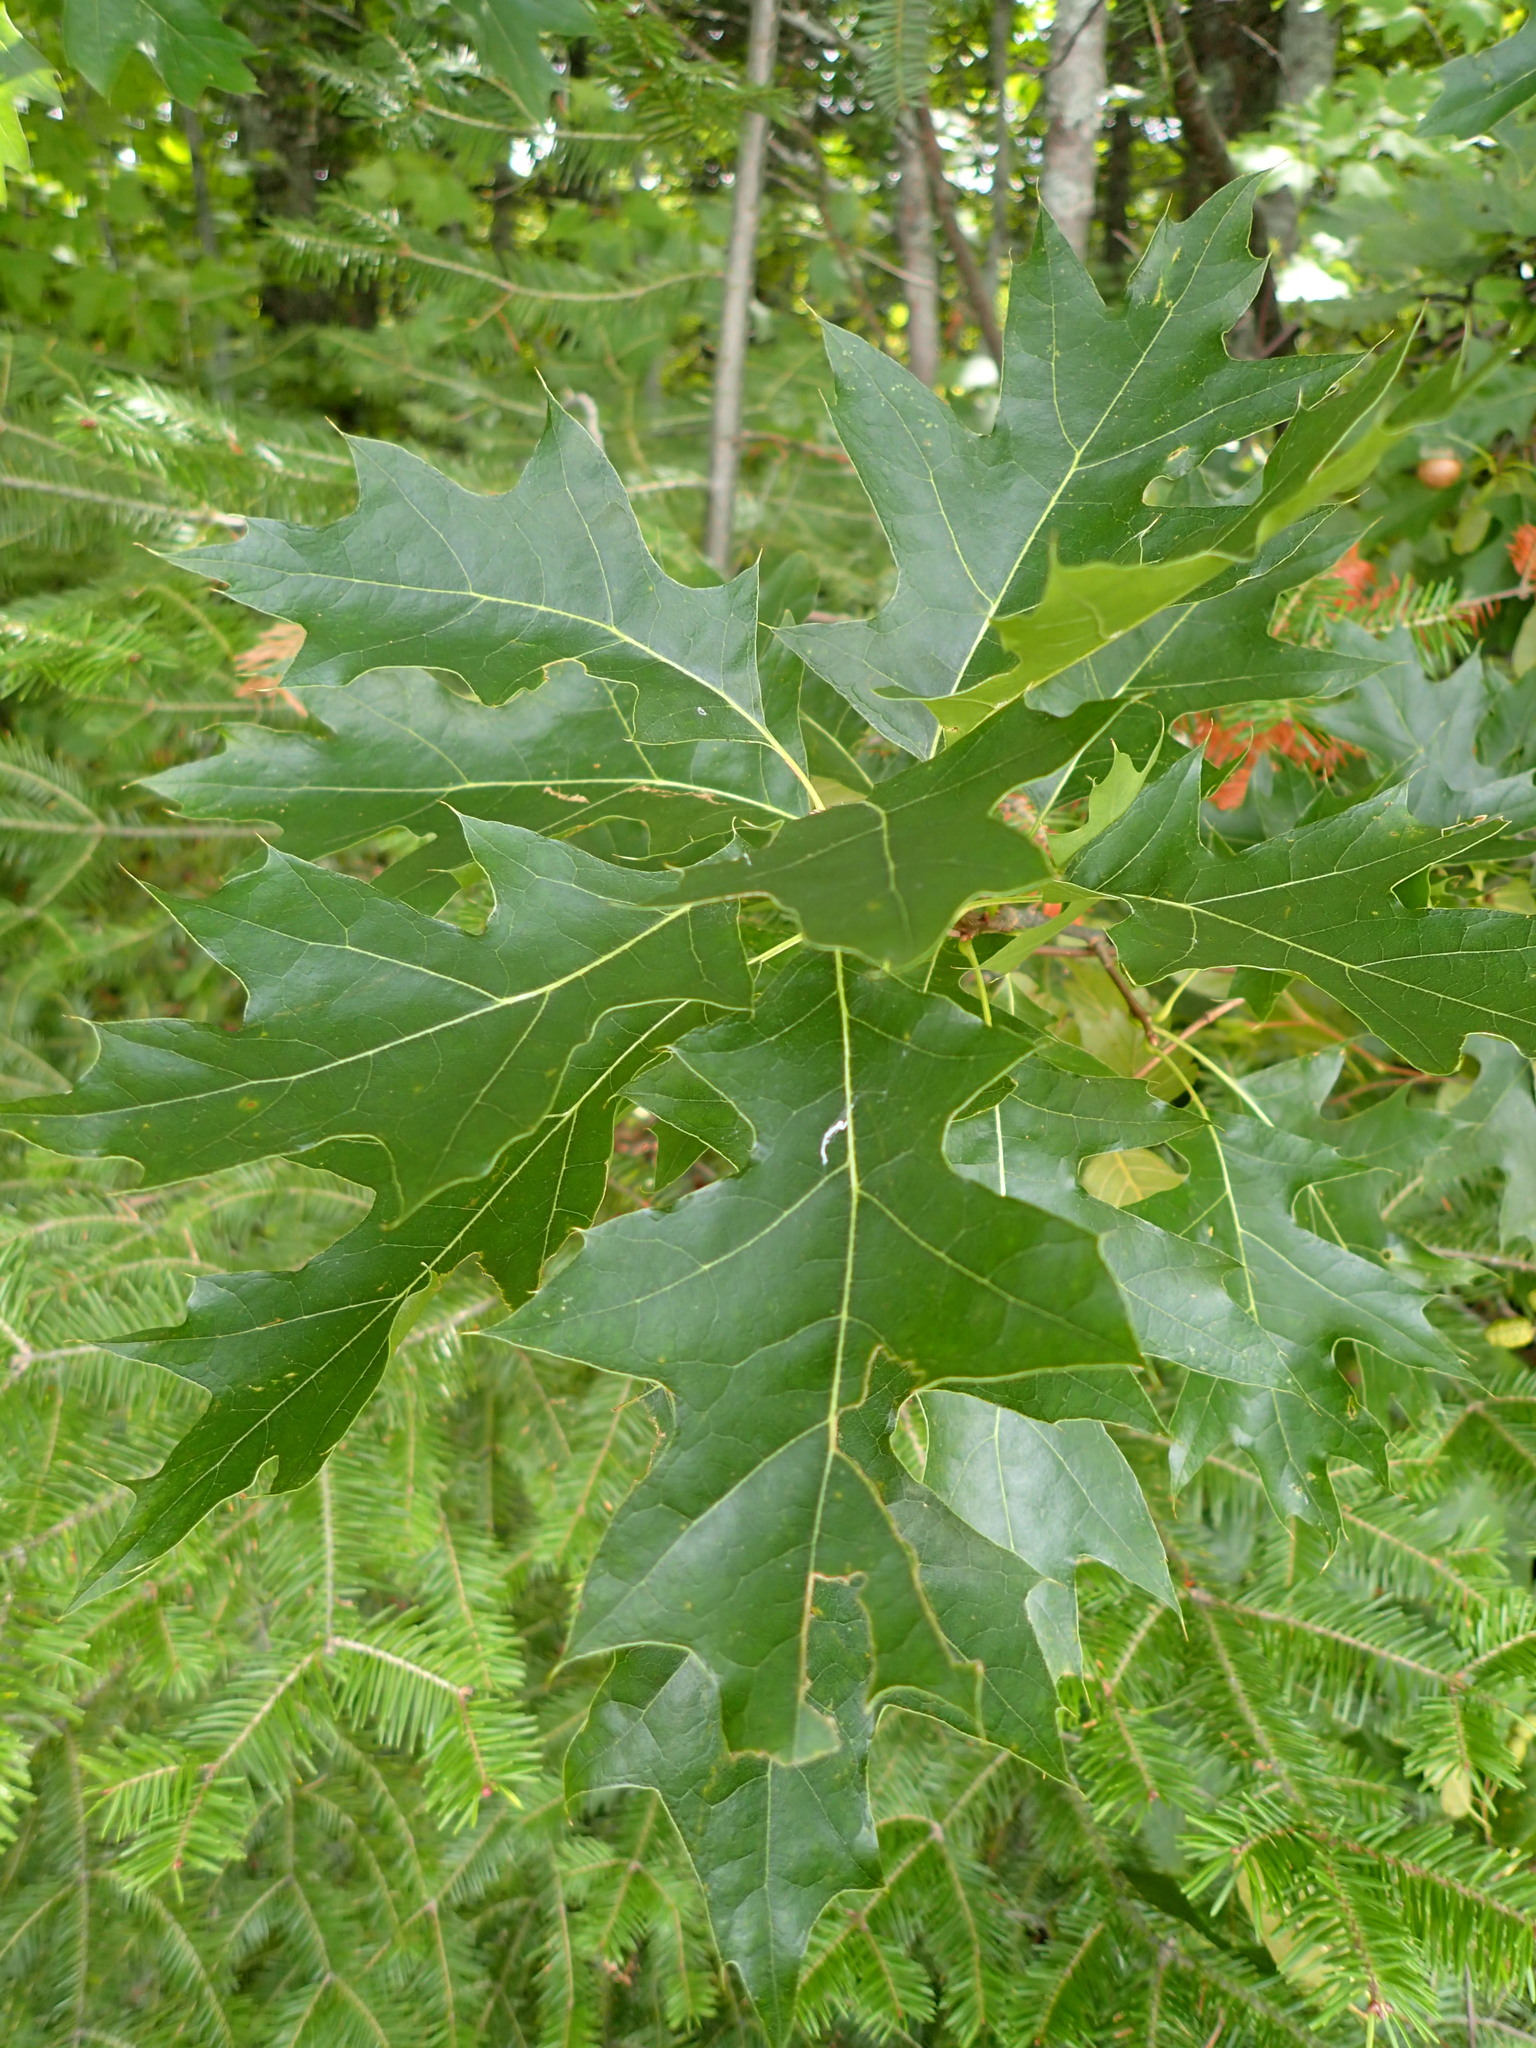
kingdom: Plantae
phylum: Tracheophyta
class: Magnoliopsida
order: Fagales
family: Fagaceae
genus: Quercus
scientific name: Quercus ellipsoidalis
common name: Hill's oak
